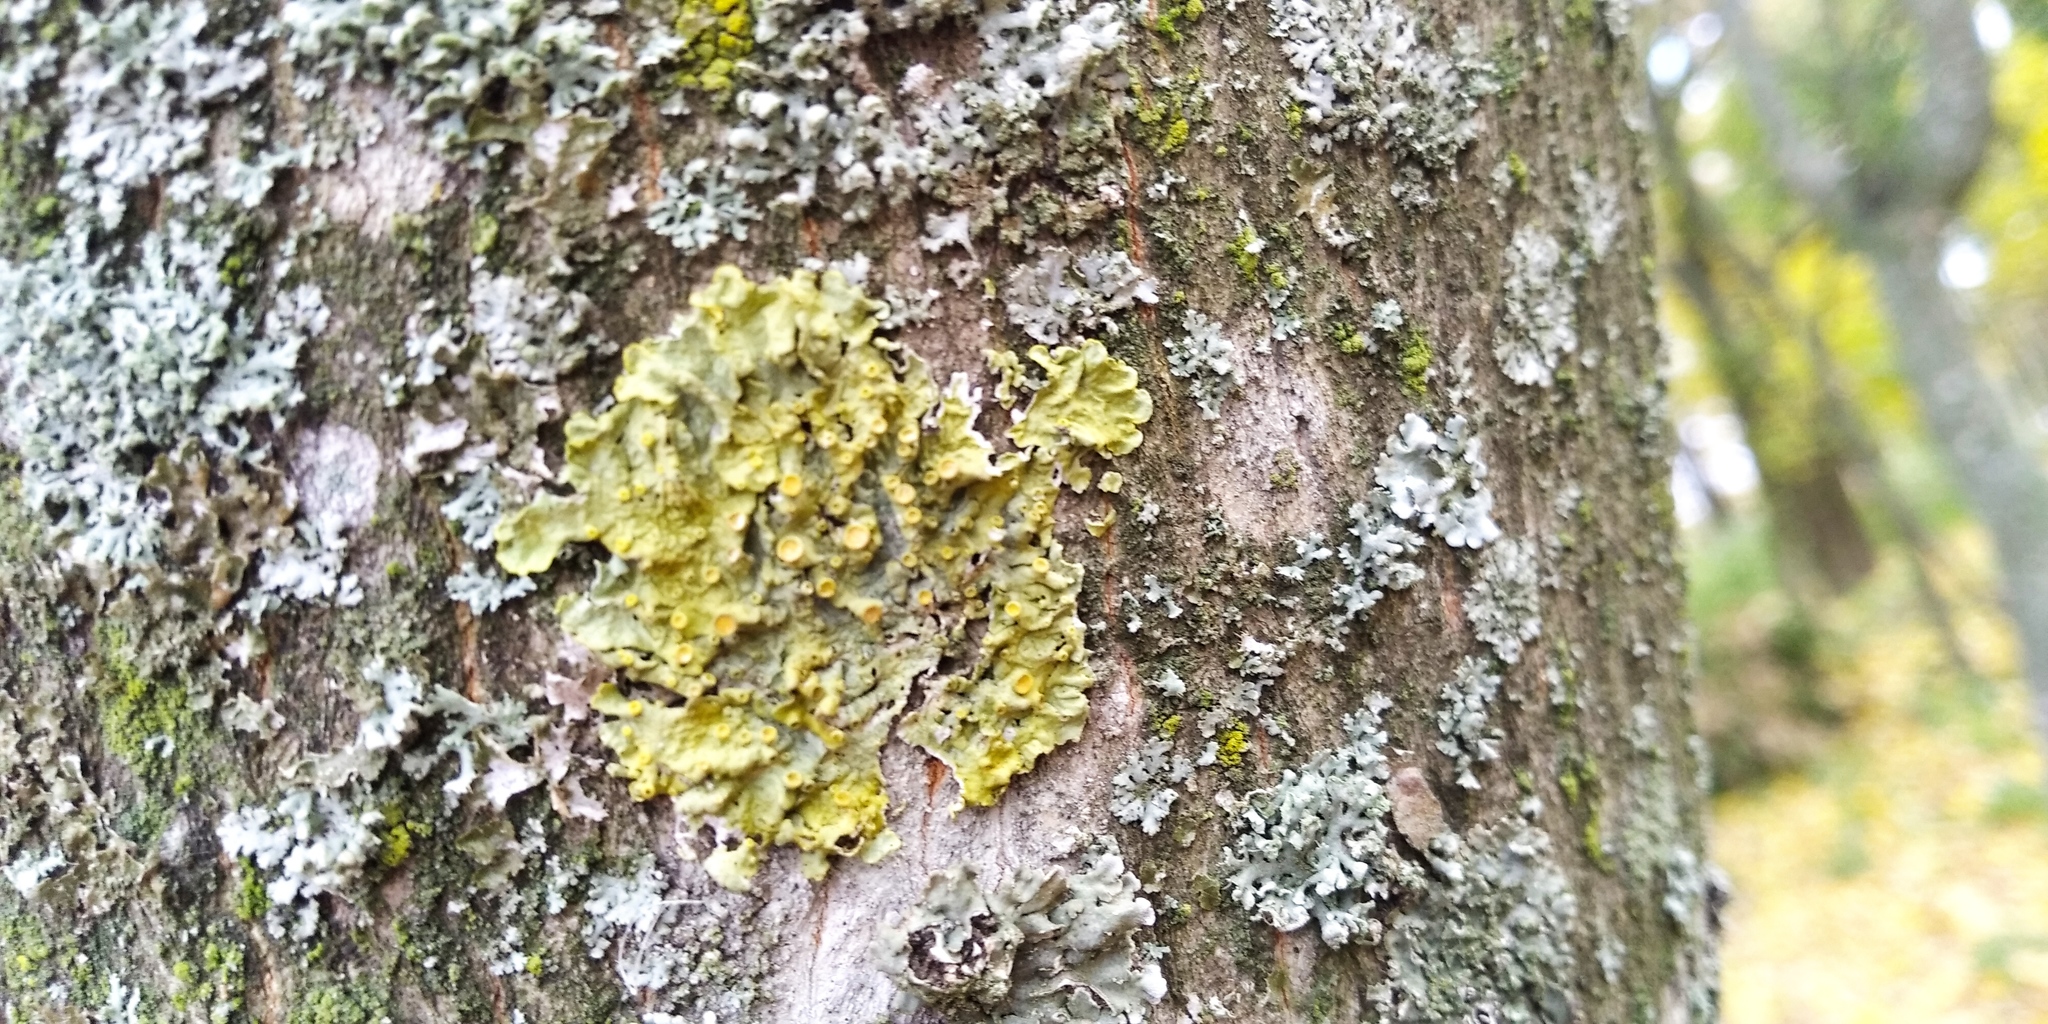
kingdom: Fungi
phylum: Ascomycota
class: Lecanoromycetes
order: Teloschistales
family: Teloschistaceae
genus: Xanthoria
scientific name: Xanthoria parietina
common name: Common orange lichen
